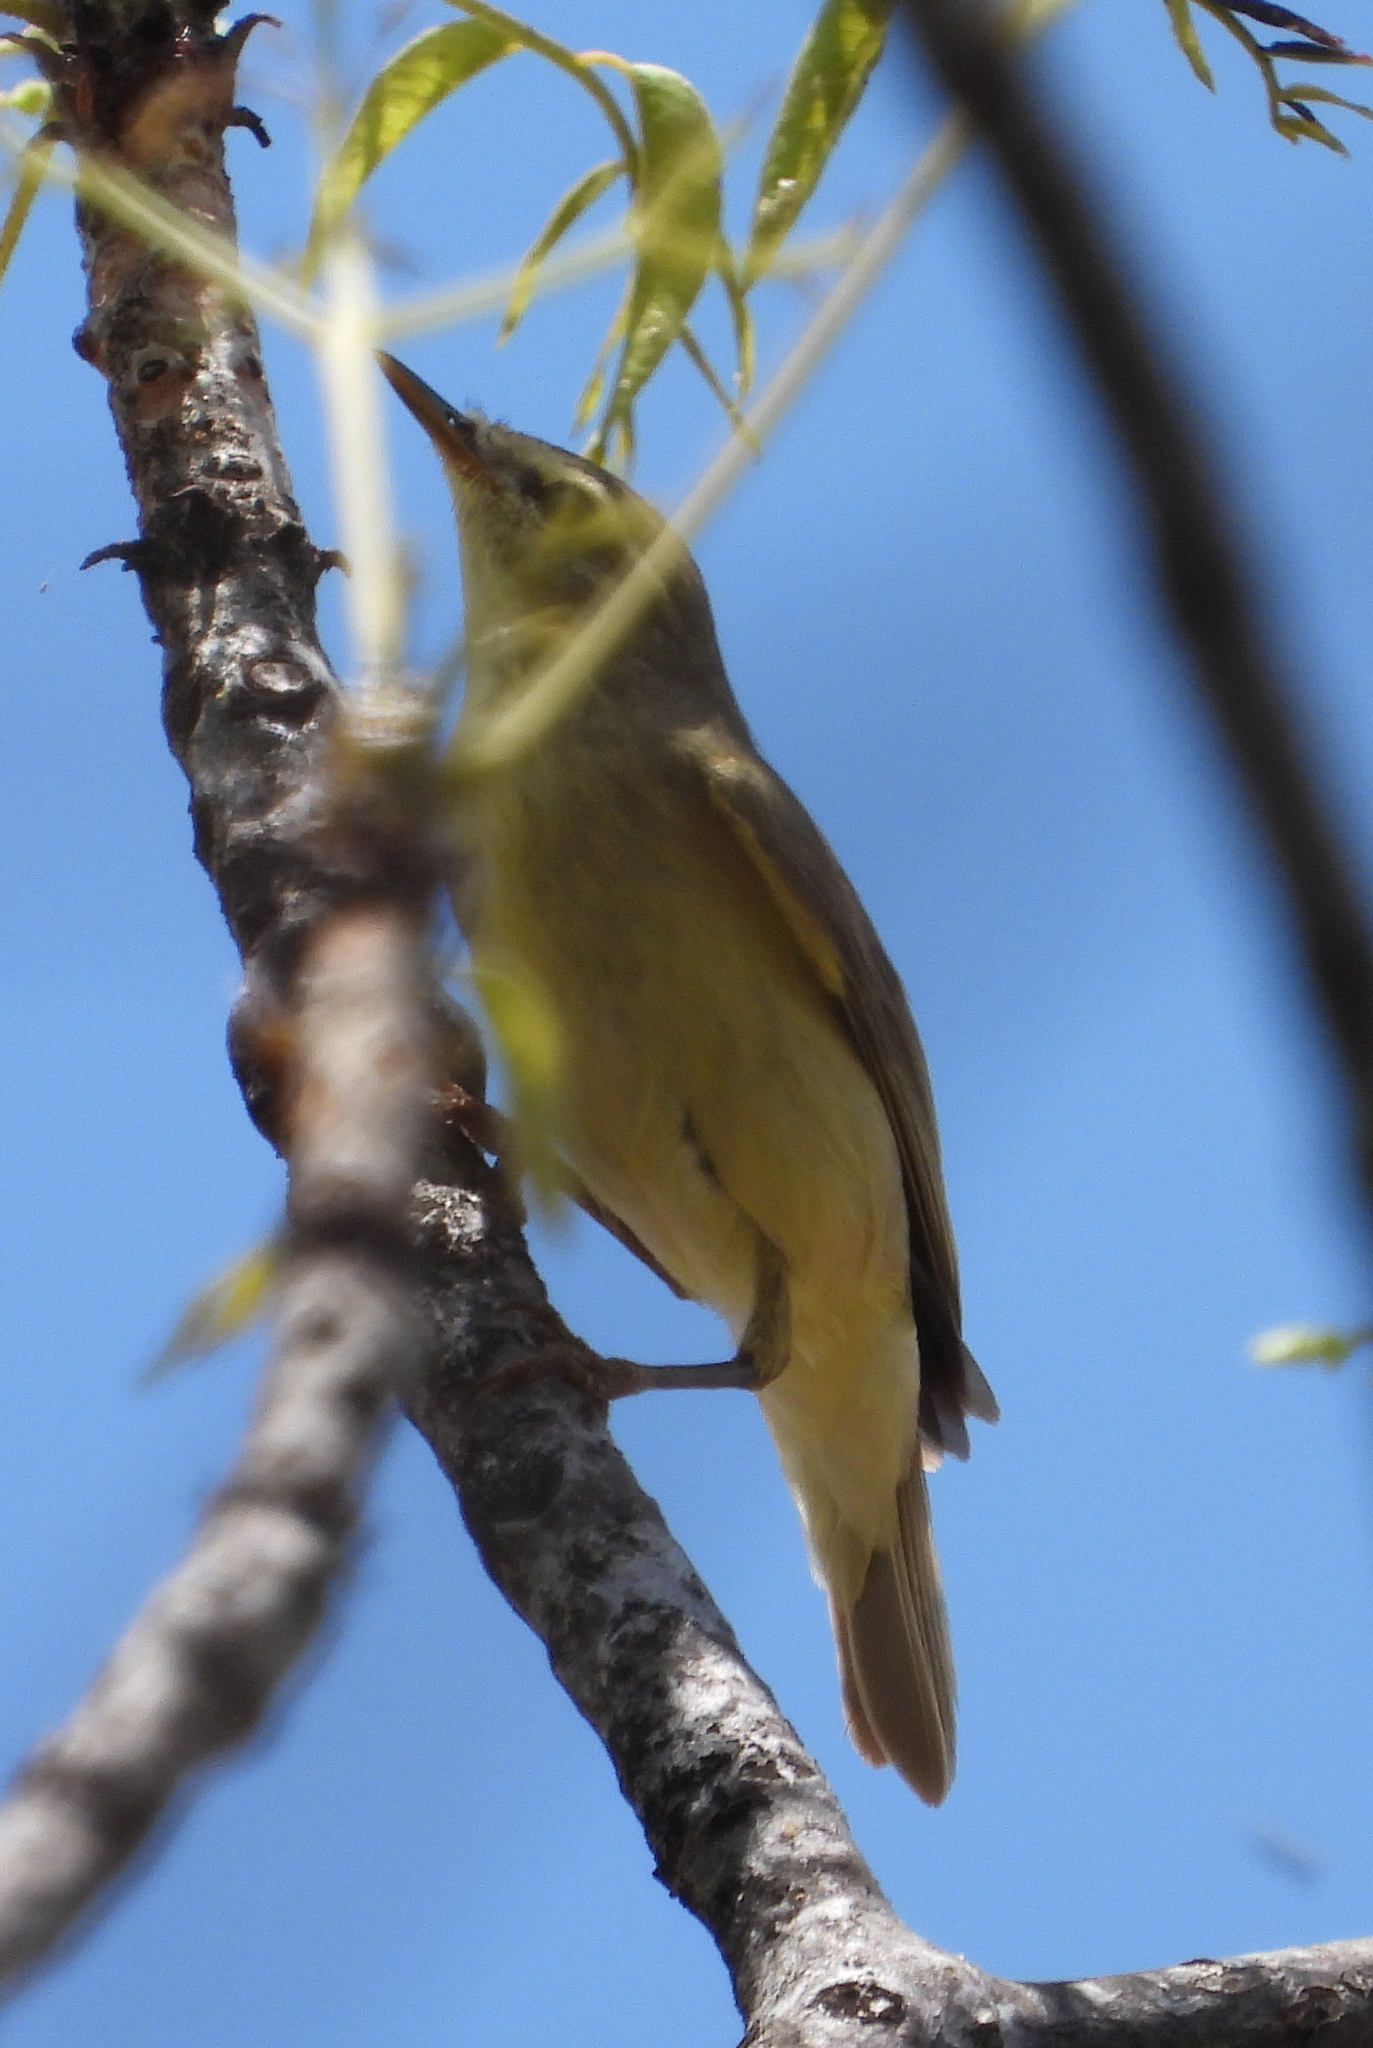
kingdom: Animalia
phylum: Chordata
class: Aves
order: Passeriformes
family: Phylloscopidae
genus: Phylloscopus
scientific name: Phylloscopus trochilus
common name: Willow warbler
